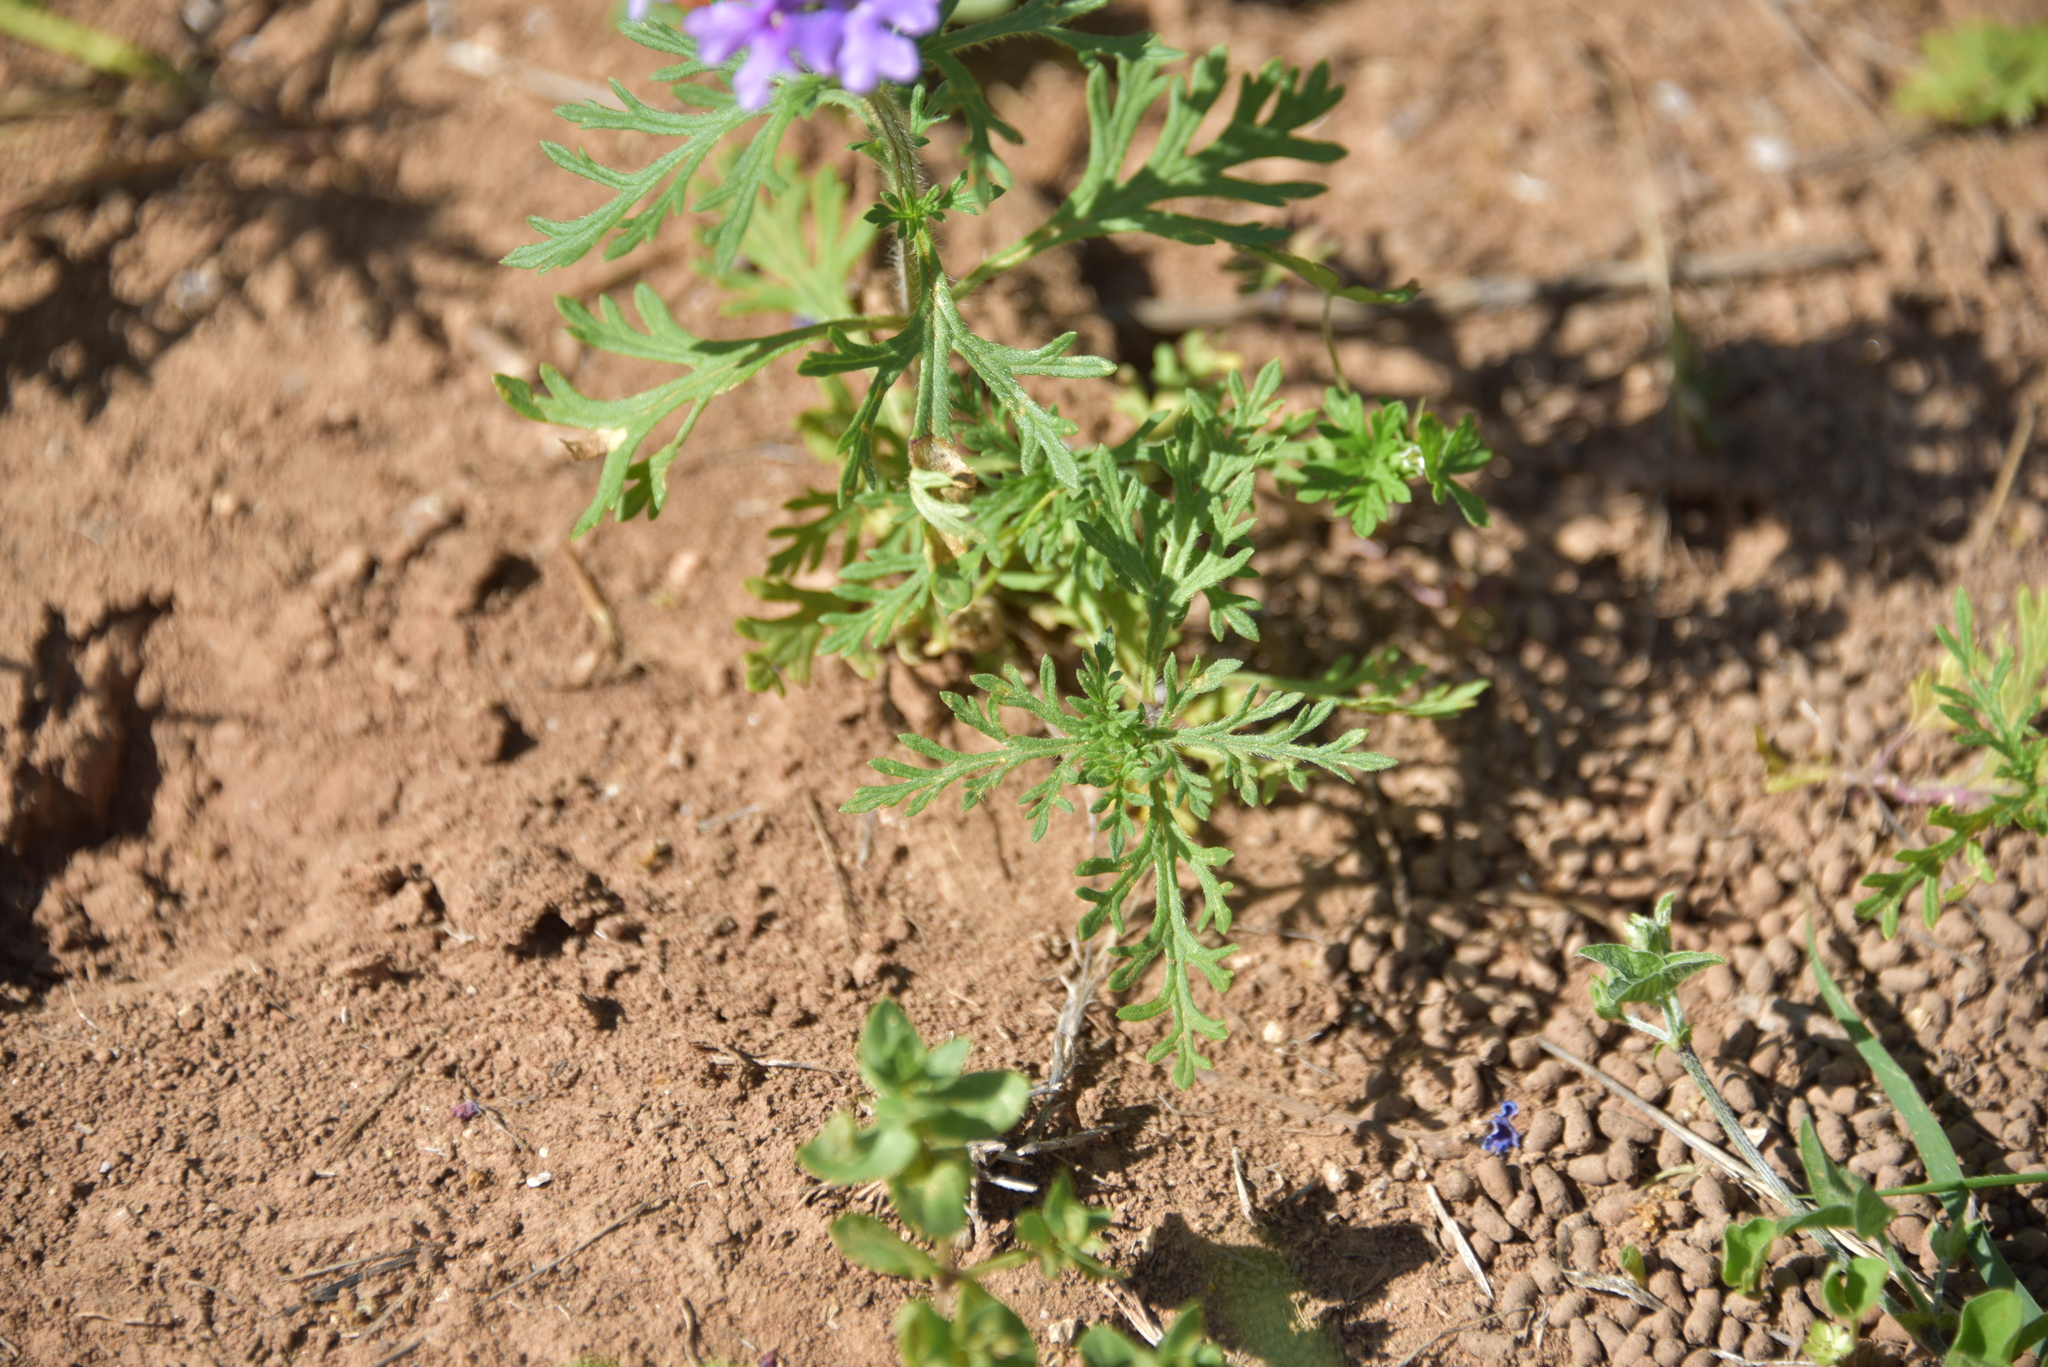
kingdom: Plantae
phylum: Tracheophyta
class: Magnoliopsida
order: Lamiales
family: Verbenaceae
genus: Verbena
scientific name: Verbena bipinnatifida
